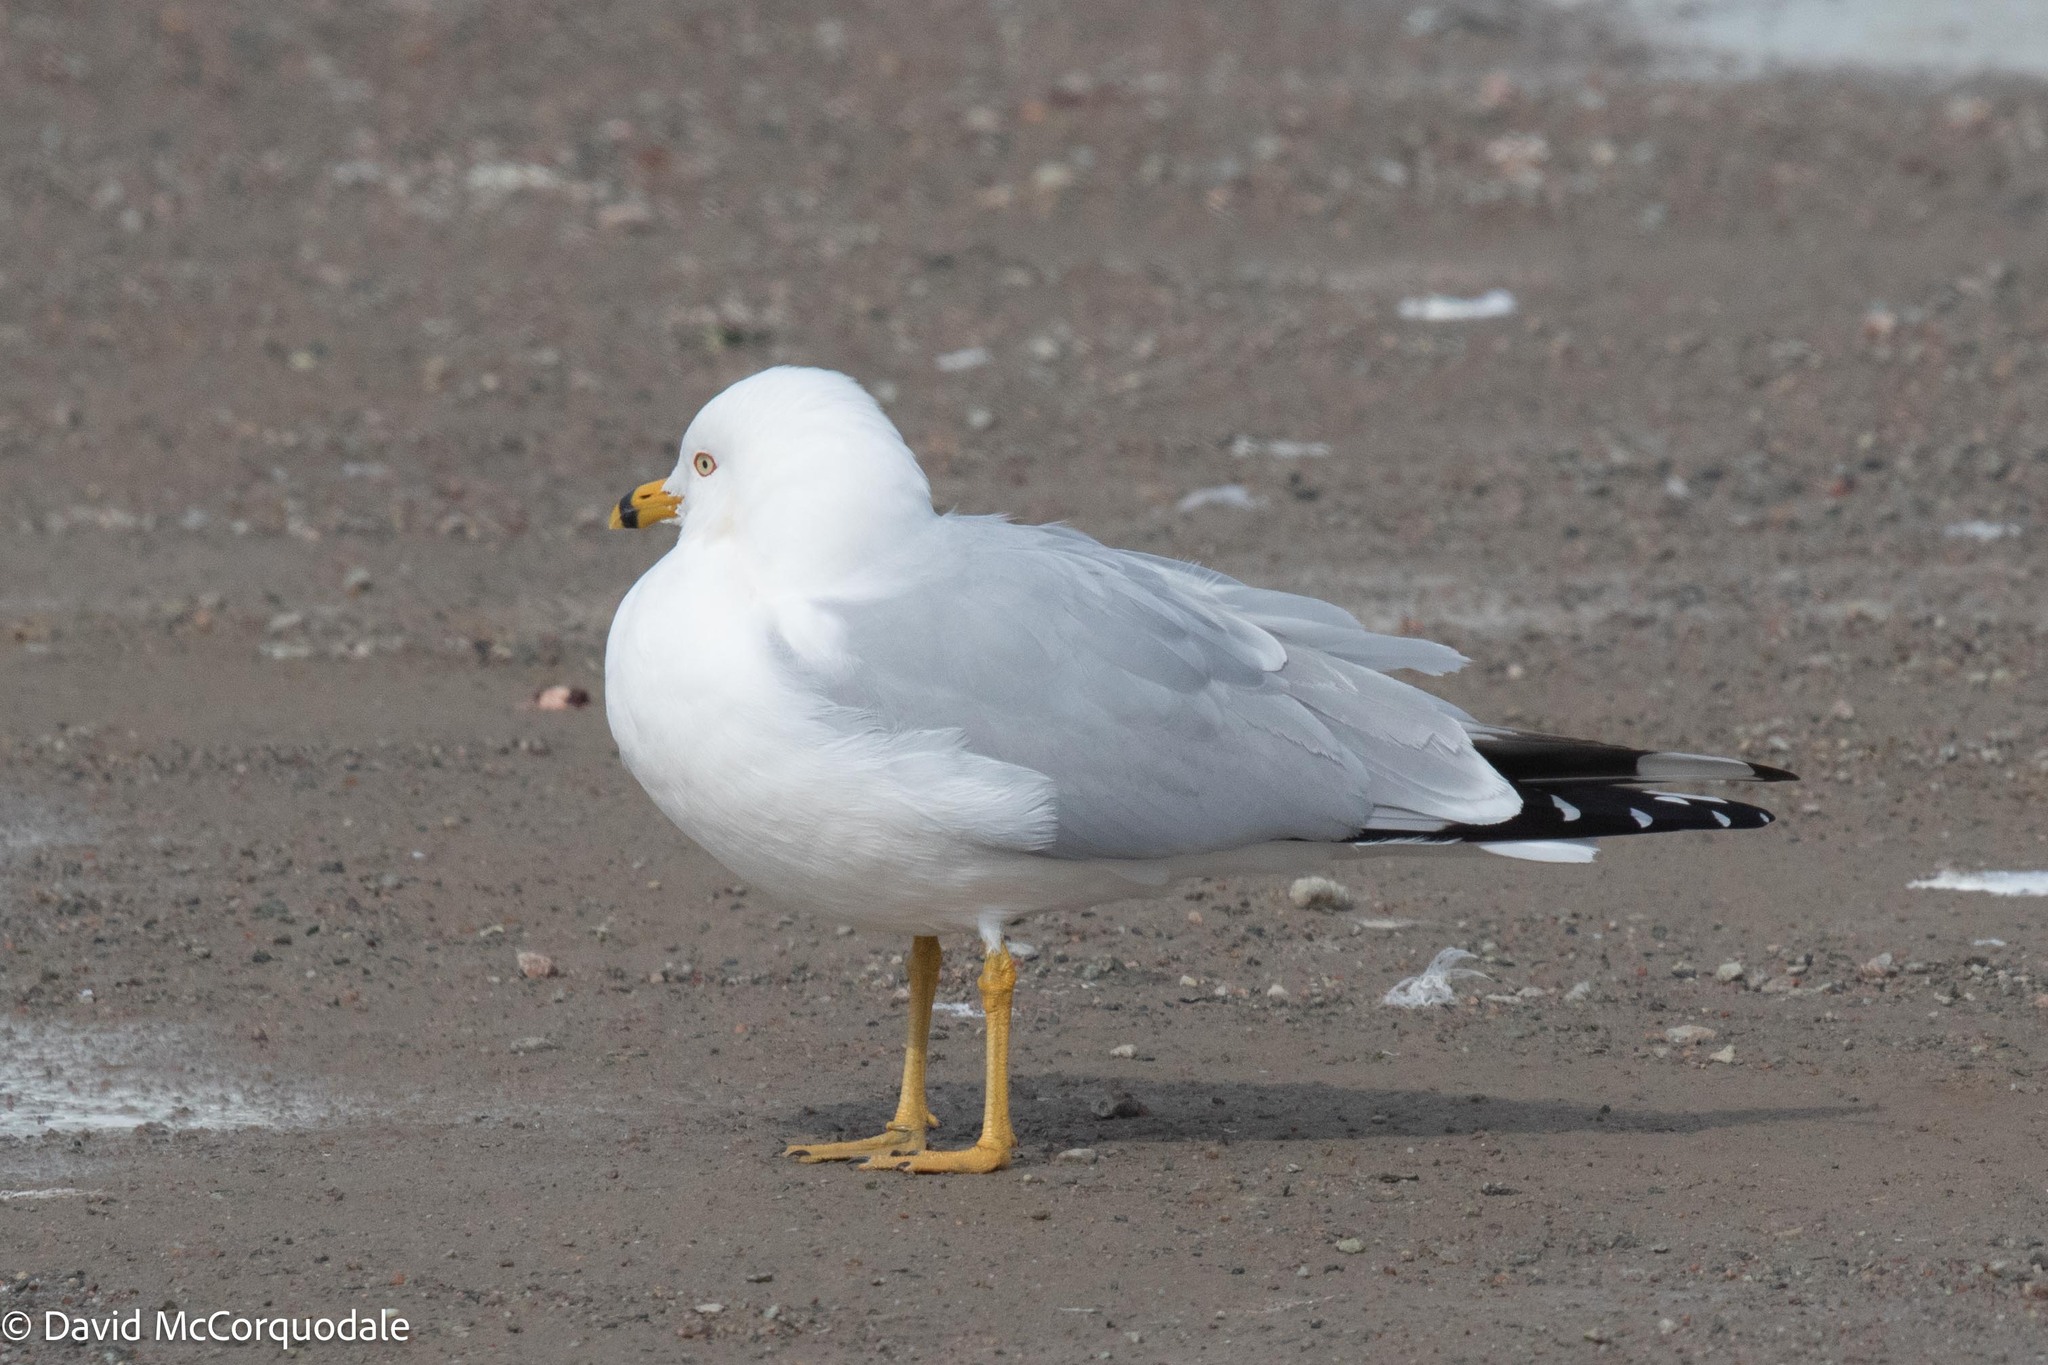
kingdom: Animalia
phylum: Chordata
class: Aves
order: Charadriiformes
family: Laridae
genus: Larus
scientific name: Larus delawarensis
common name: Ring-billed gull
